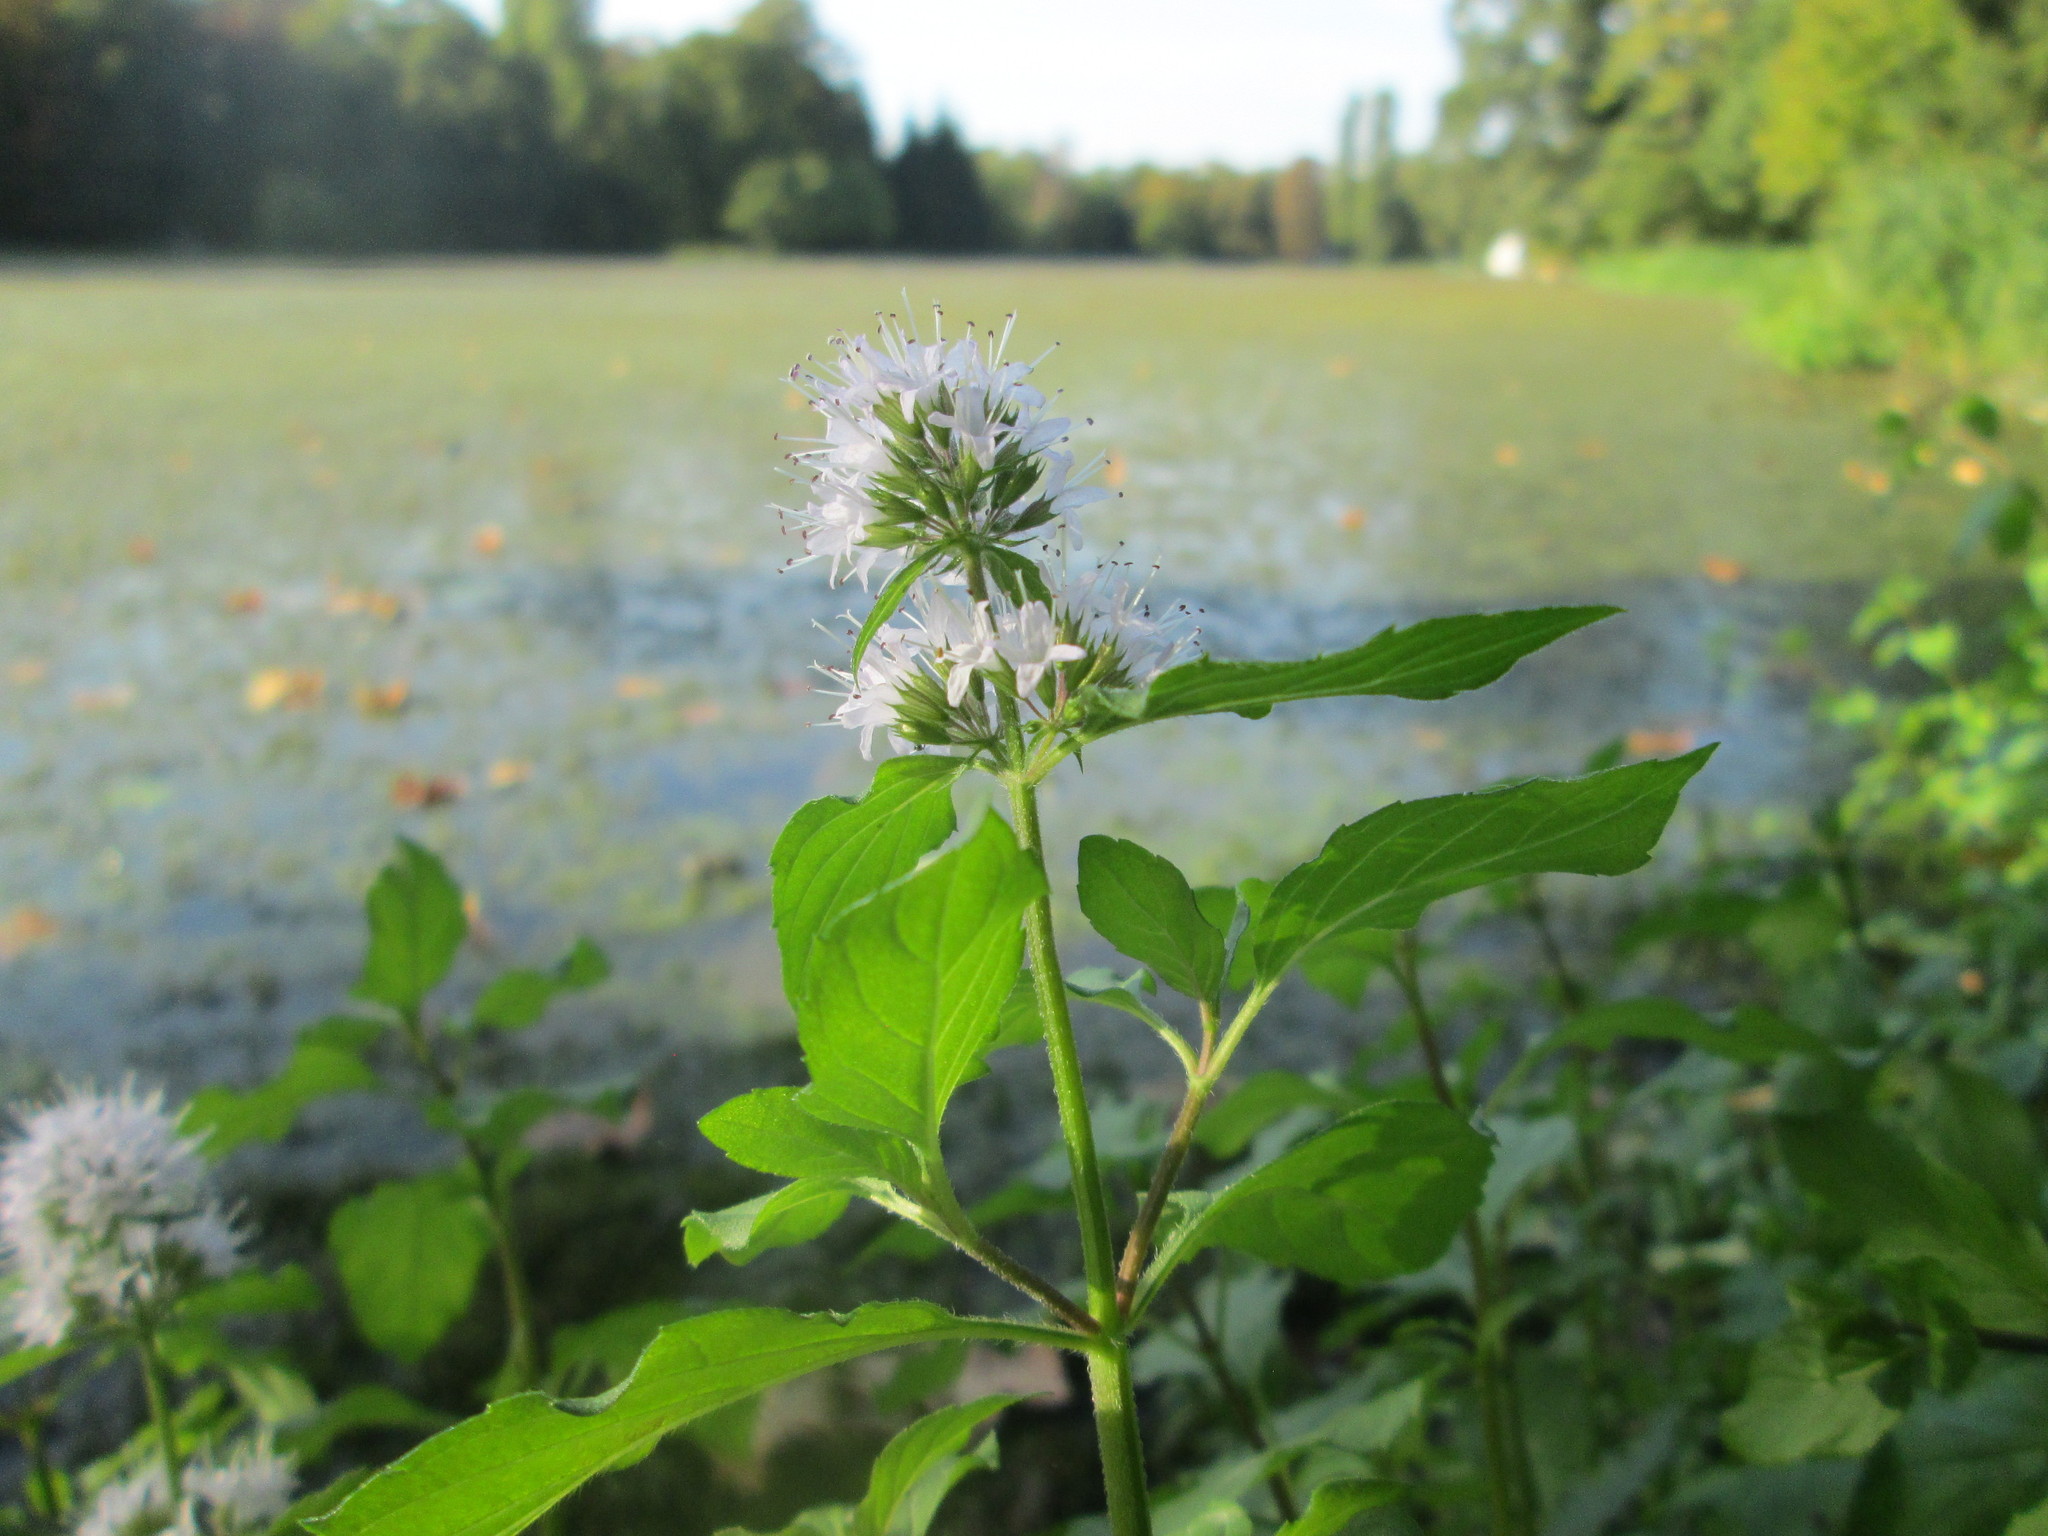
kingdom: Plantae
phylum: Tracheophyta
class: Magnoliopsida
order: Lamiales
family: Lamiaceae
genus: Mentha
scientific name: Mentha aquatica
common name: Water mint
